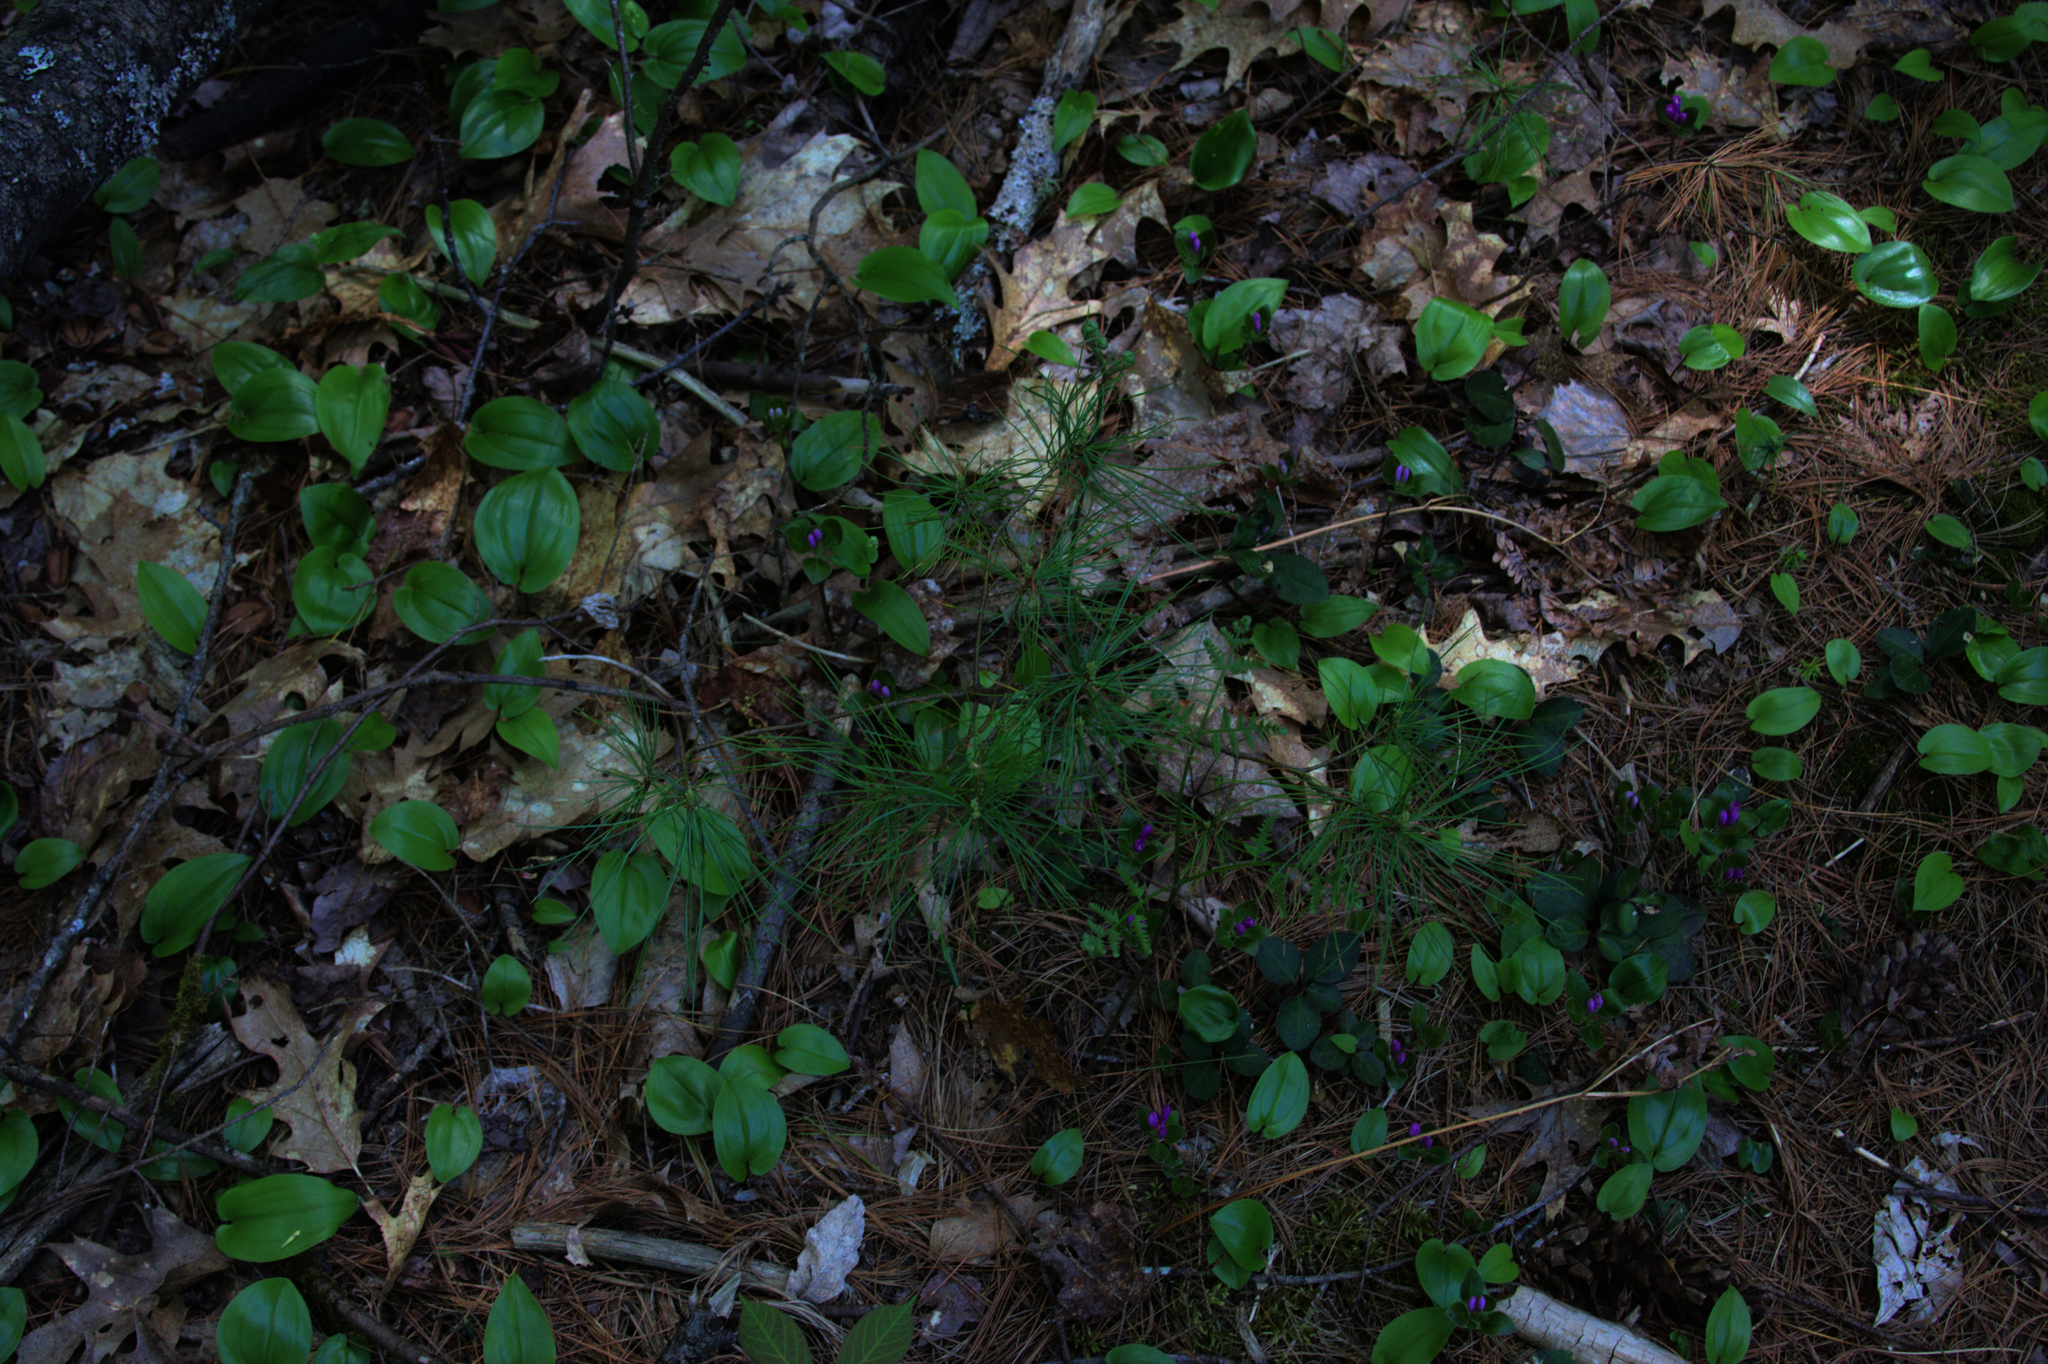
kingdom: Plantae
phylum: Tracheophyta
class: Pinopsida
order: Pinales
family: Pinaceae
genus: Pinus
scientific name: Pinus strobus
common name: Weymouth pine
